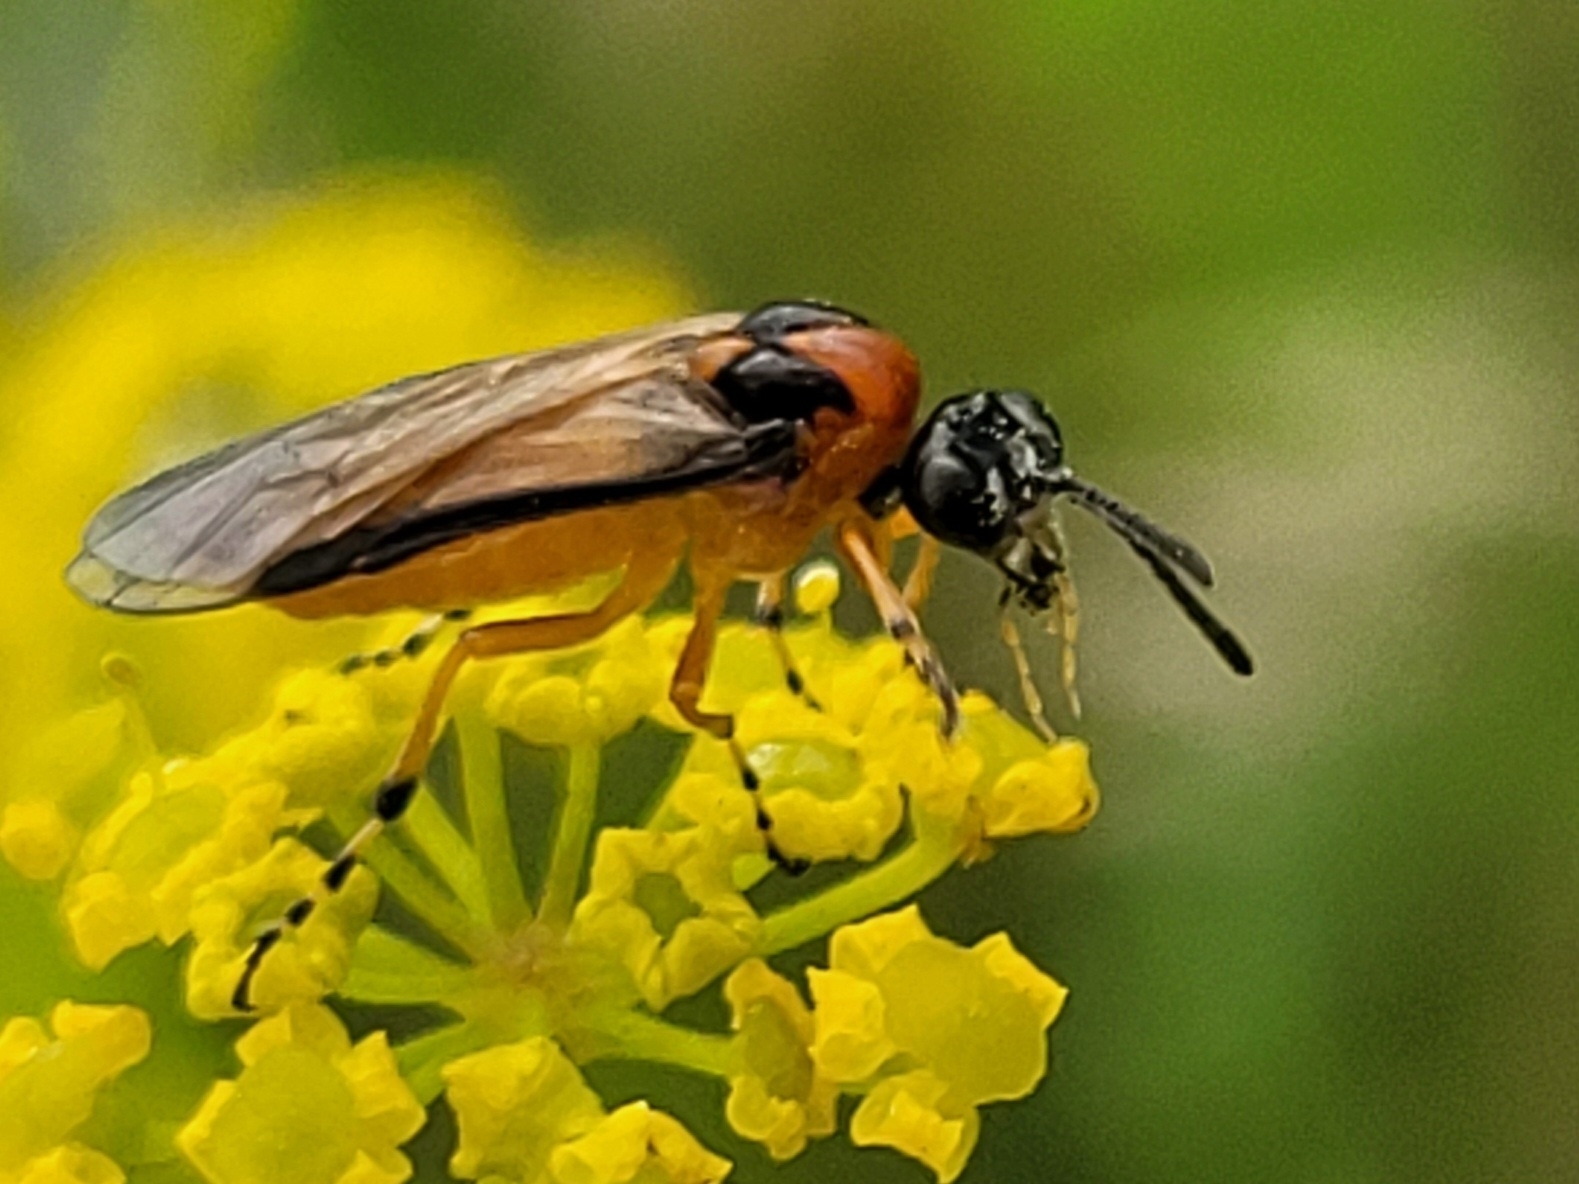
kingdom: Animalia
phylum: Arthropoda
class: Insecta
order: Hymenoptera
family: Tenthredinidae
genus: Athalia
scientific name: Athalia rosae
